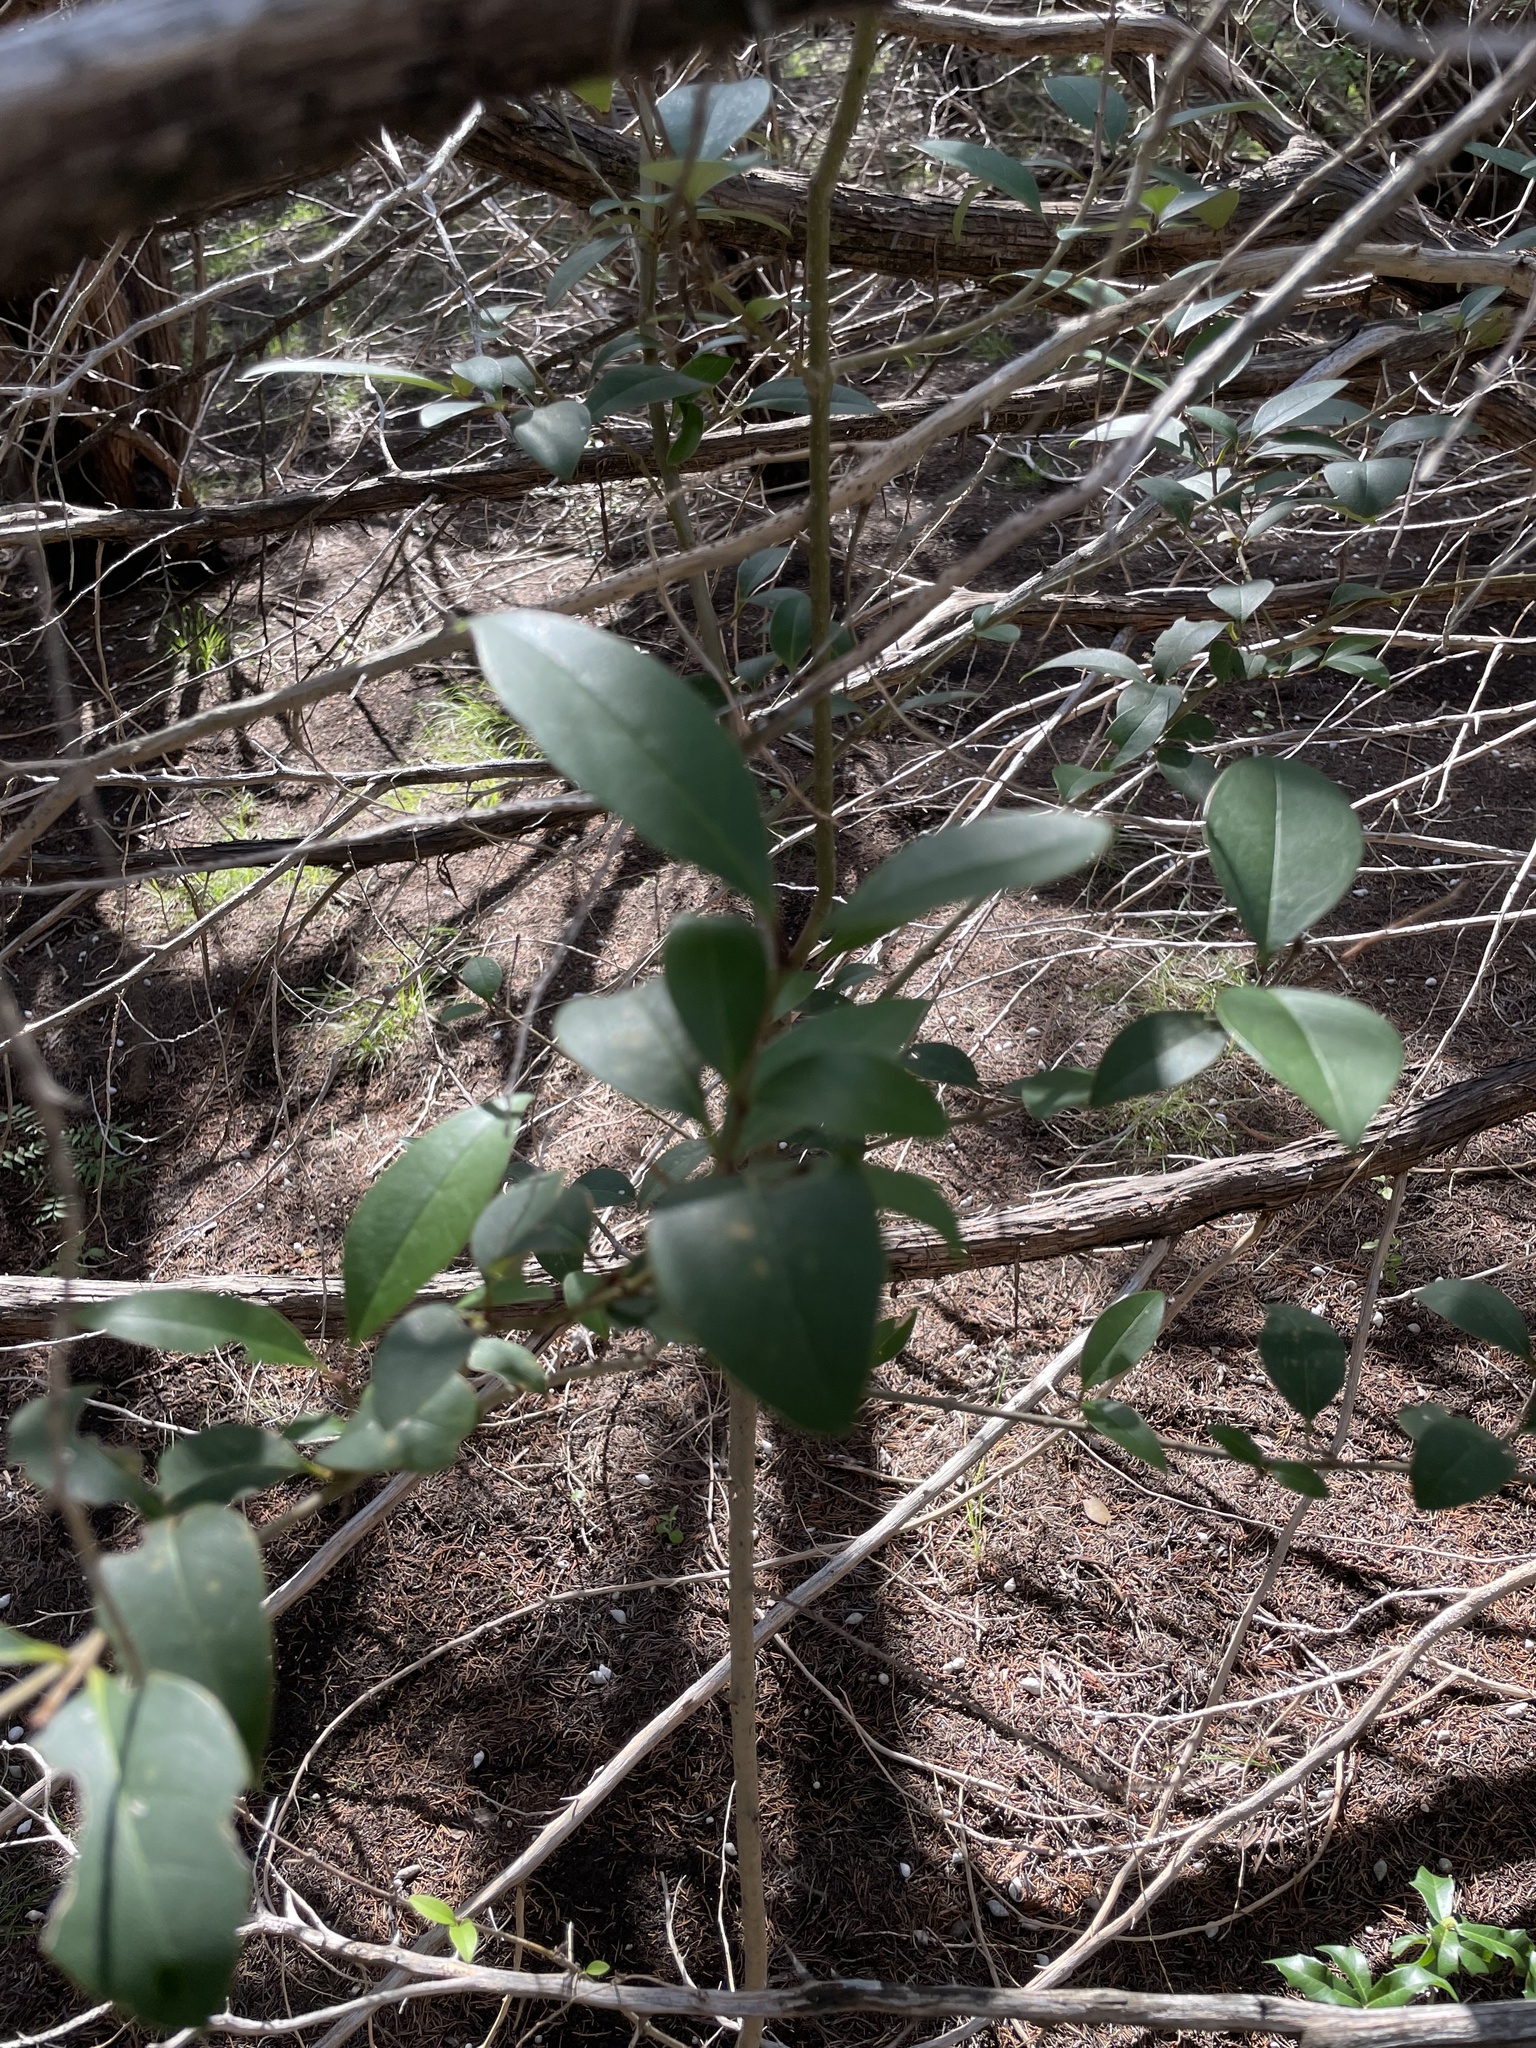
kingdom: Plantae
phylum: Tracheophyta
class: Magnoliopsida
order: Lamiales
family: Oleaceae
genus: Ligustrum
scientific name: Ligustrum lucidum
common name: Glossy privet
